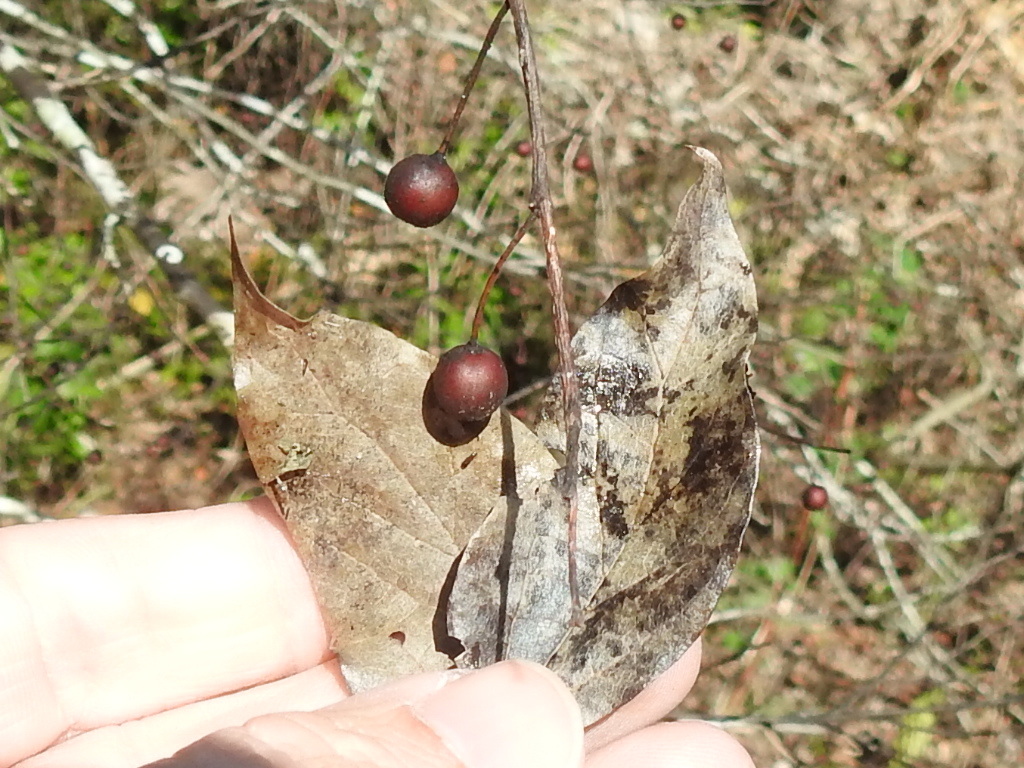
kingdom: Plantae
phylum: Tracheophyta
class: Magnoliopsida
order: Rosales
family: Cannabaceae
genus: Celtis
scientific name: Celtis laevigata
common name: Sugarberry
